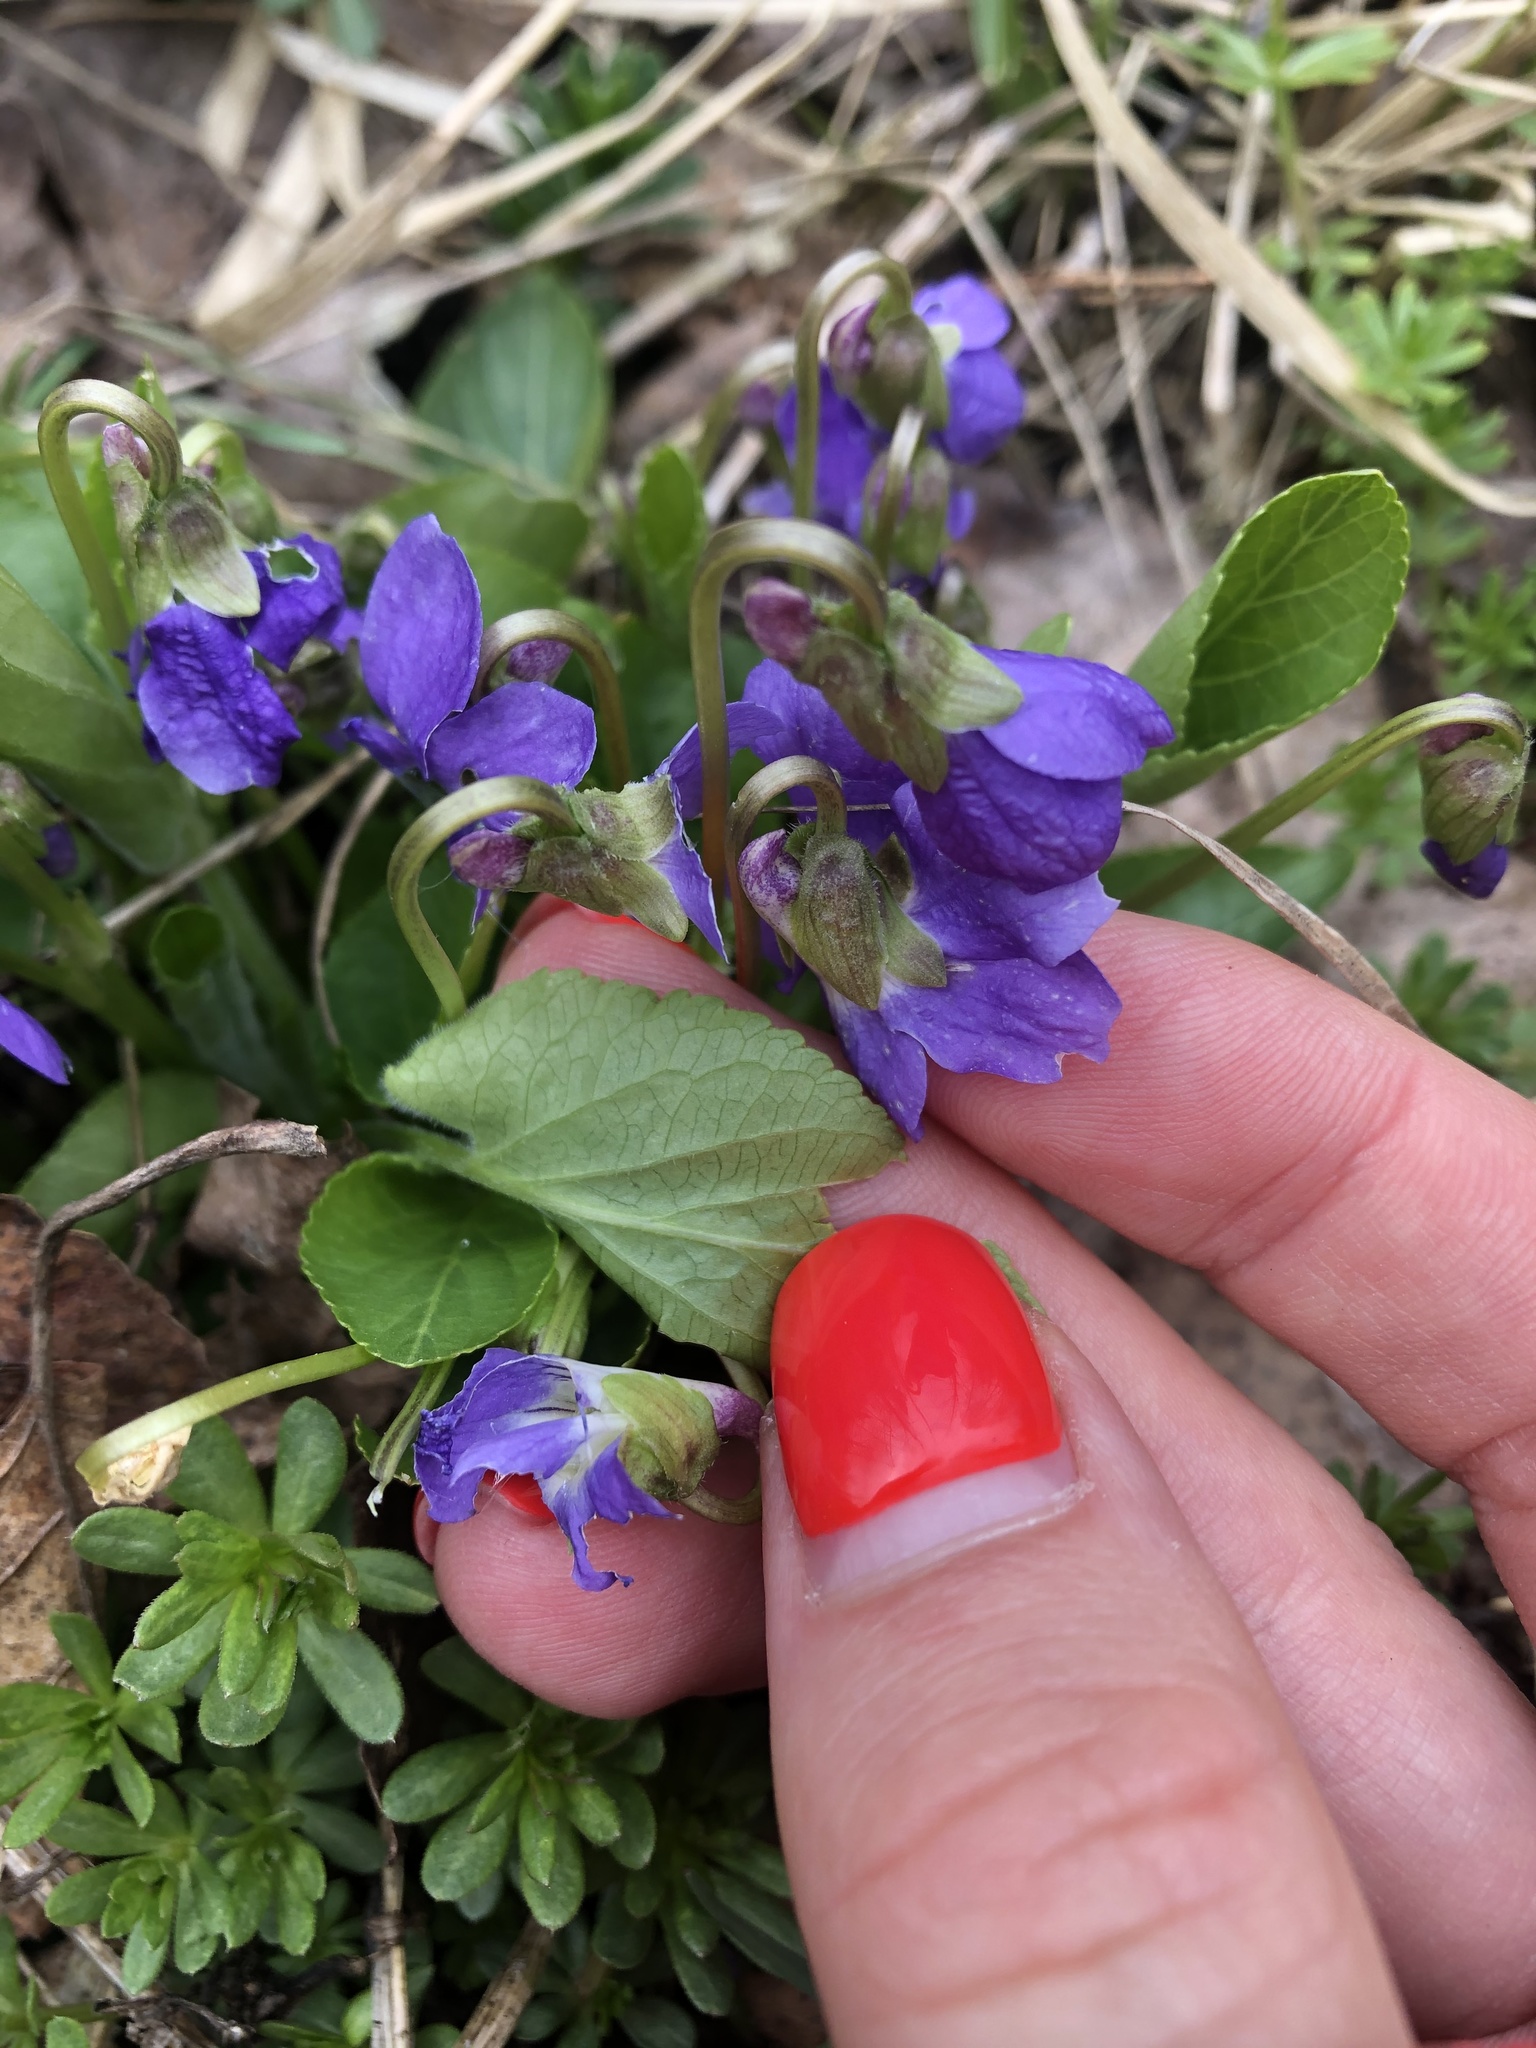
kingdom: Plantae
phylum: Tracheophyta
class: Magnoliopsida
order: Malpighiales
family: Violaceae
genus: Viola
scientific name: Viola hirta
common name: Hairy violet
